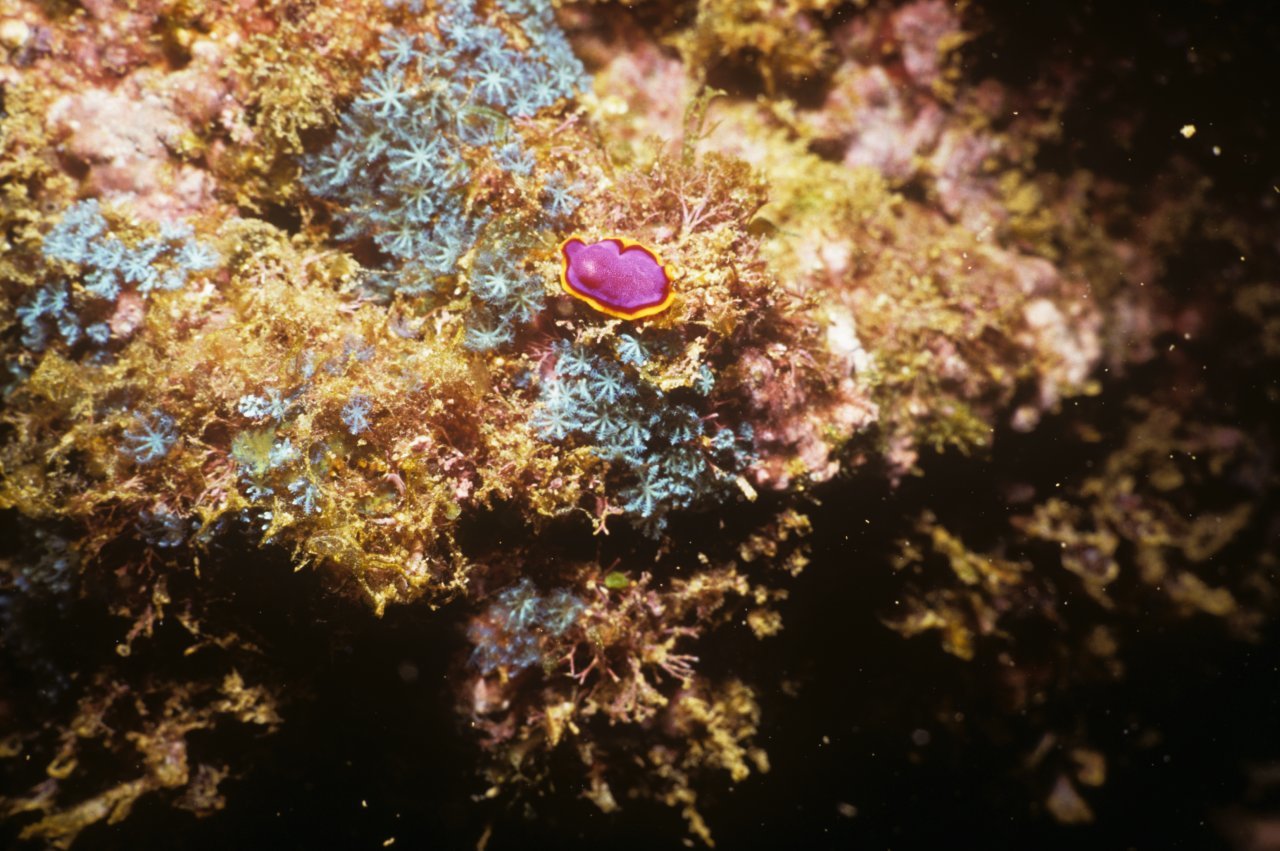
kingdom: Animalia
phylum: Platyhelminthes
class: Turbellaria
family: Pseudocerotidae
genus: Pseudoceros
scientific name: Pseudoceros ferrugineus
